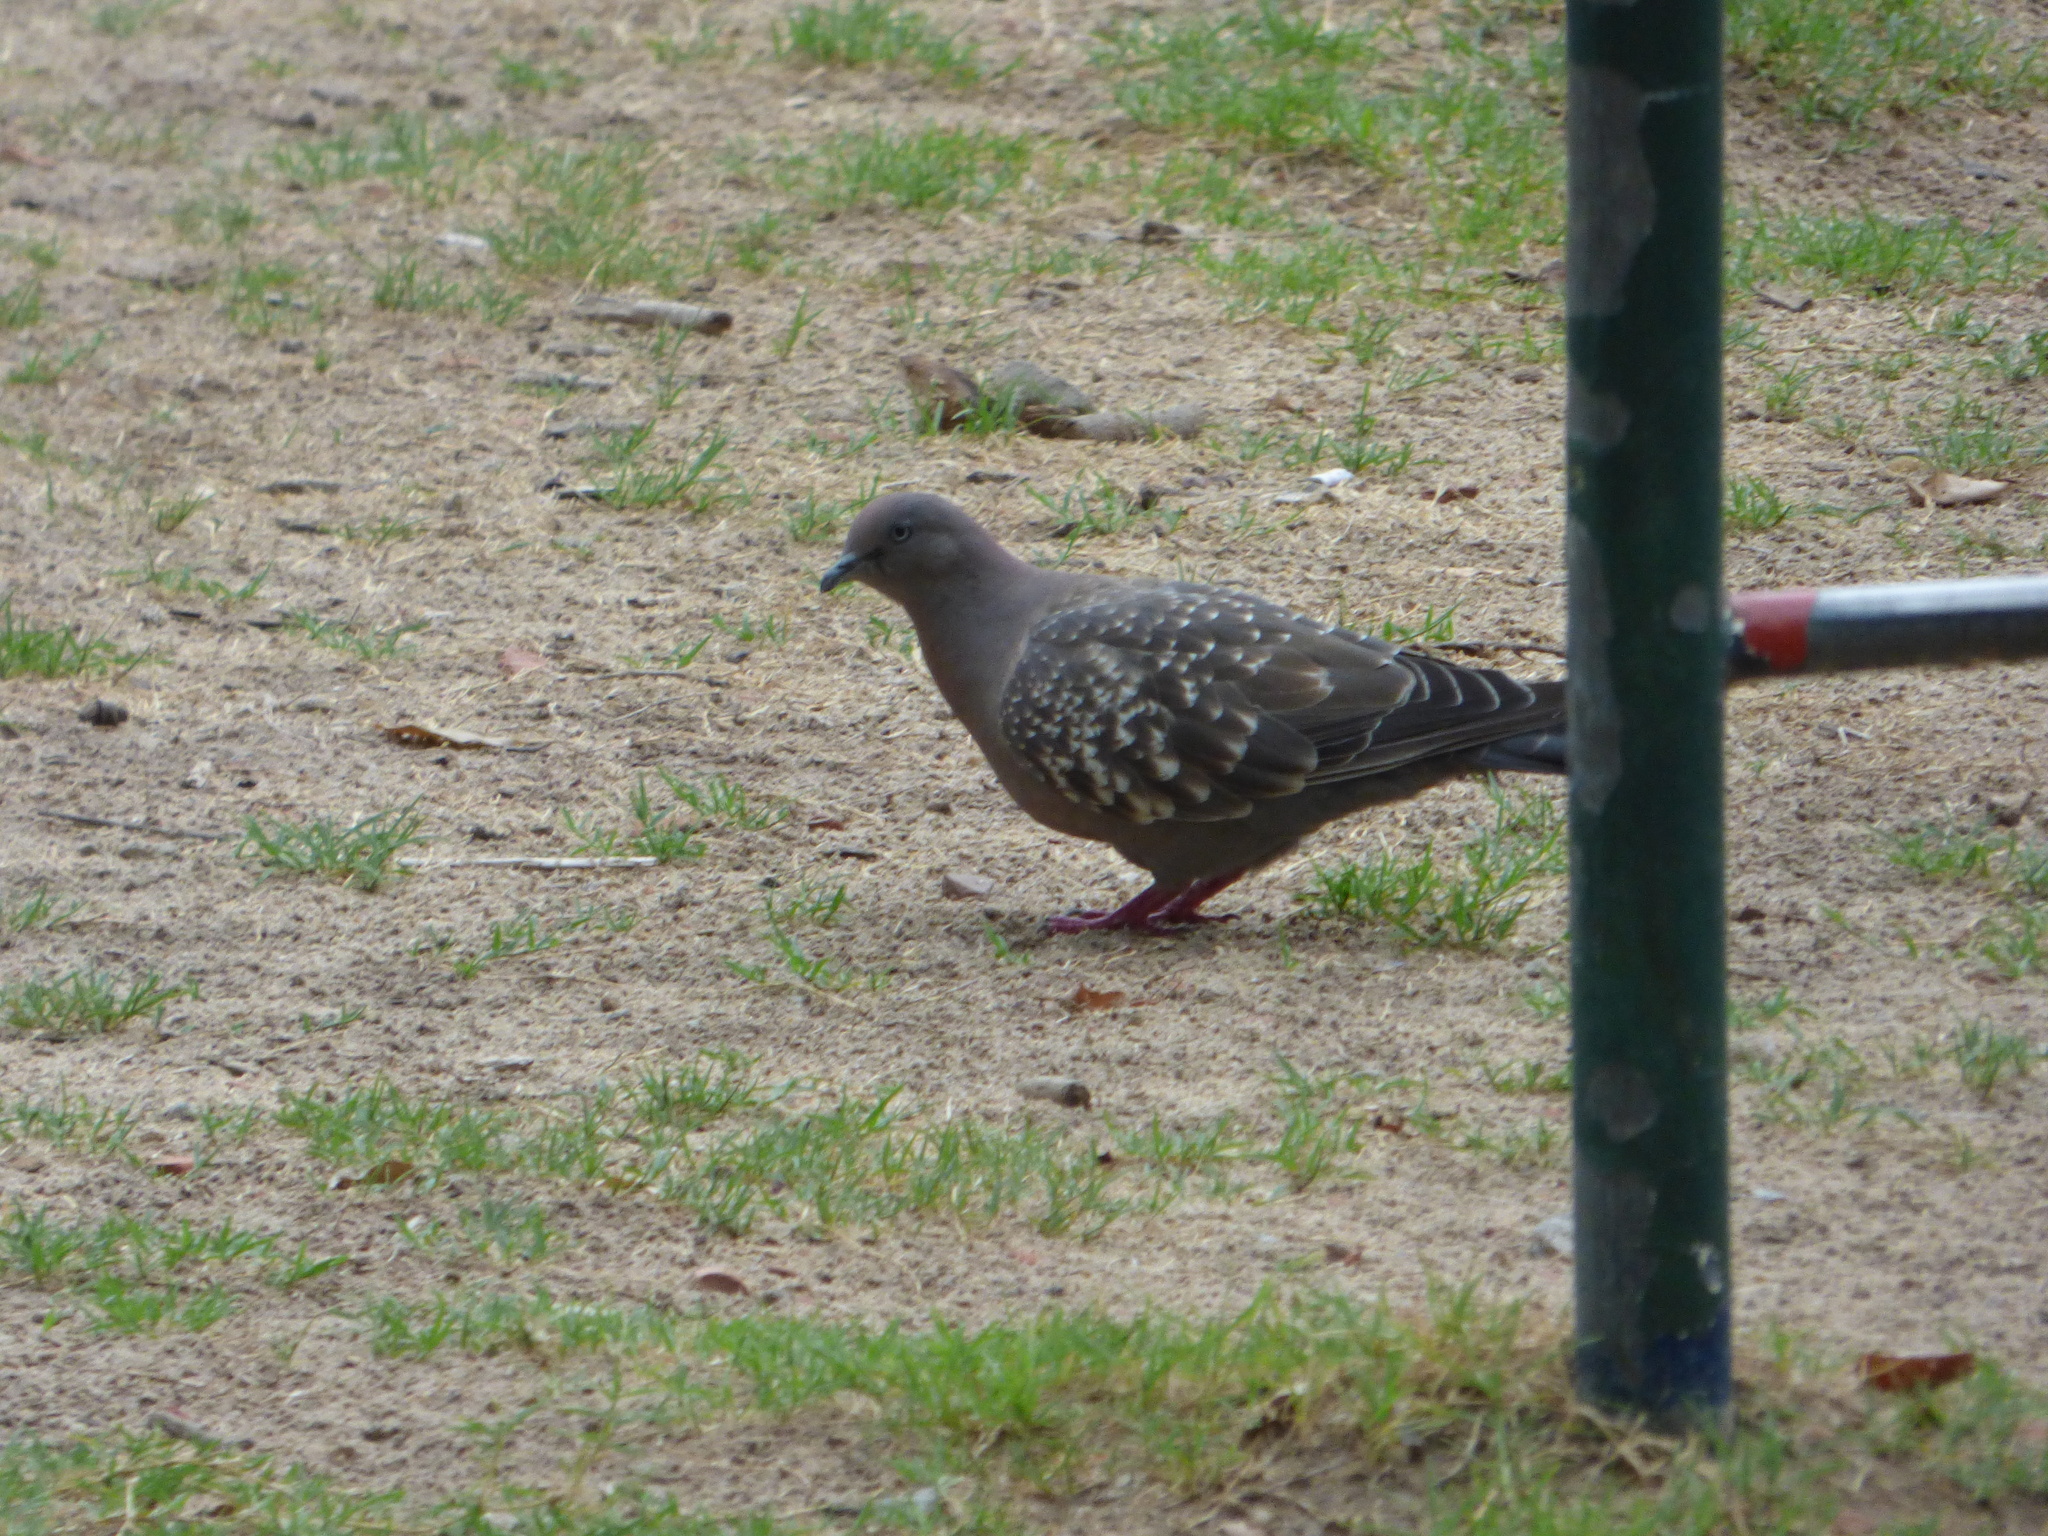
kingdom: Animalia
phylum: Chordata
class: Aves
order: Columbiformes
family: Columbidae
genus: Patagioenas
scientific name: Patagioenas maculosa
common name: Spot-winged pigeon
